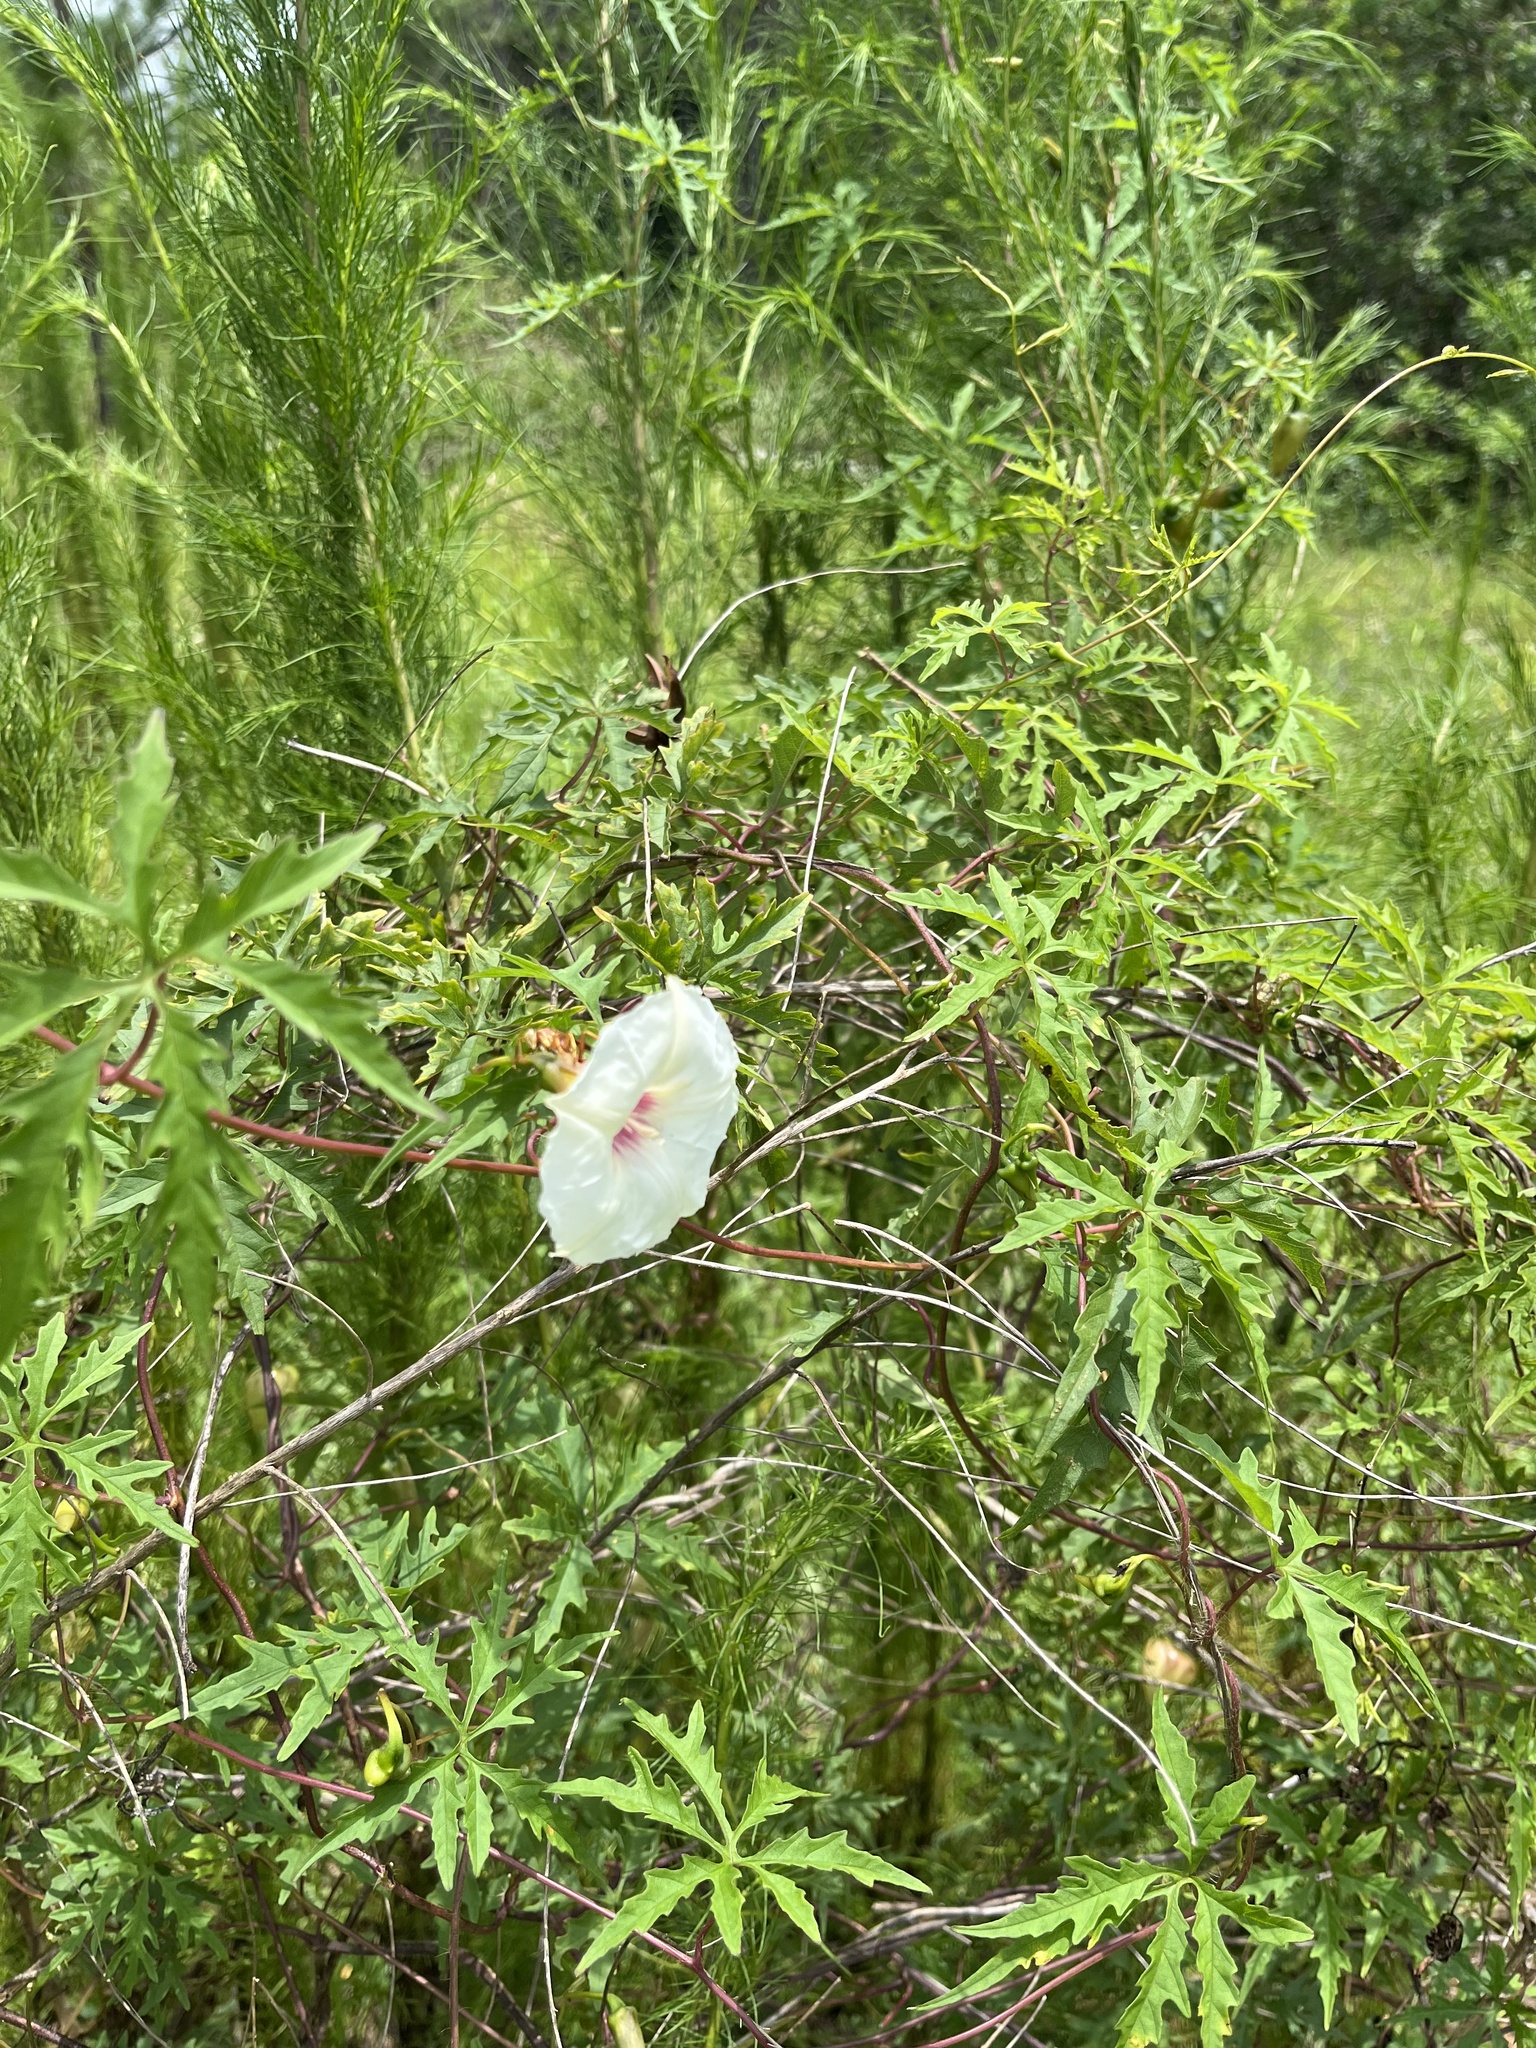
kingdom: Plantae
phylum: Tracheophyta
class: Magnoliopsida
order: Solanales
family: Convolvulaceae
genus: Distimake
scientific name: Distimake dissectus
